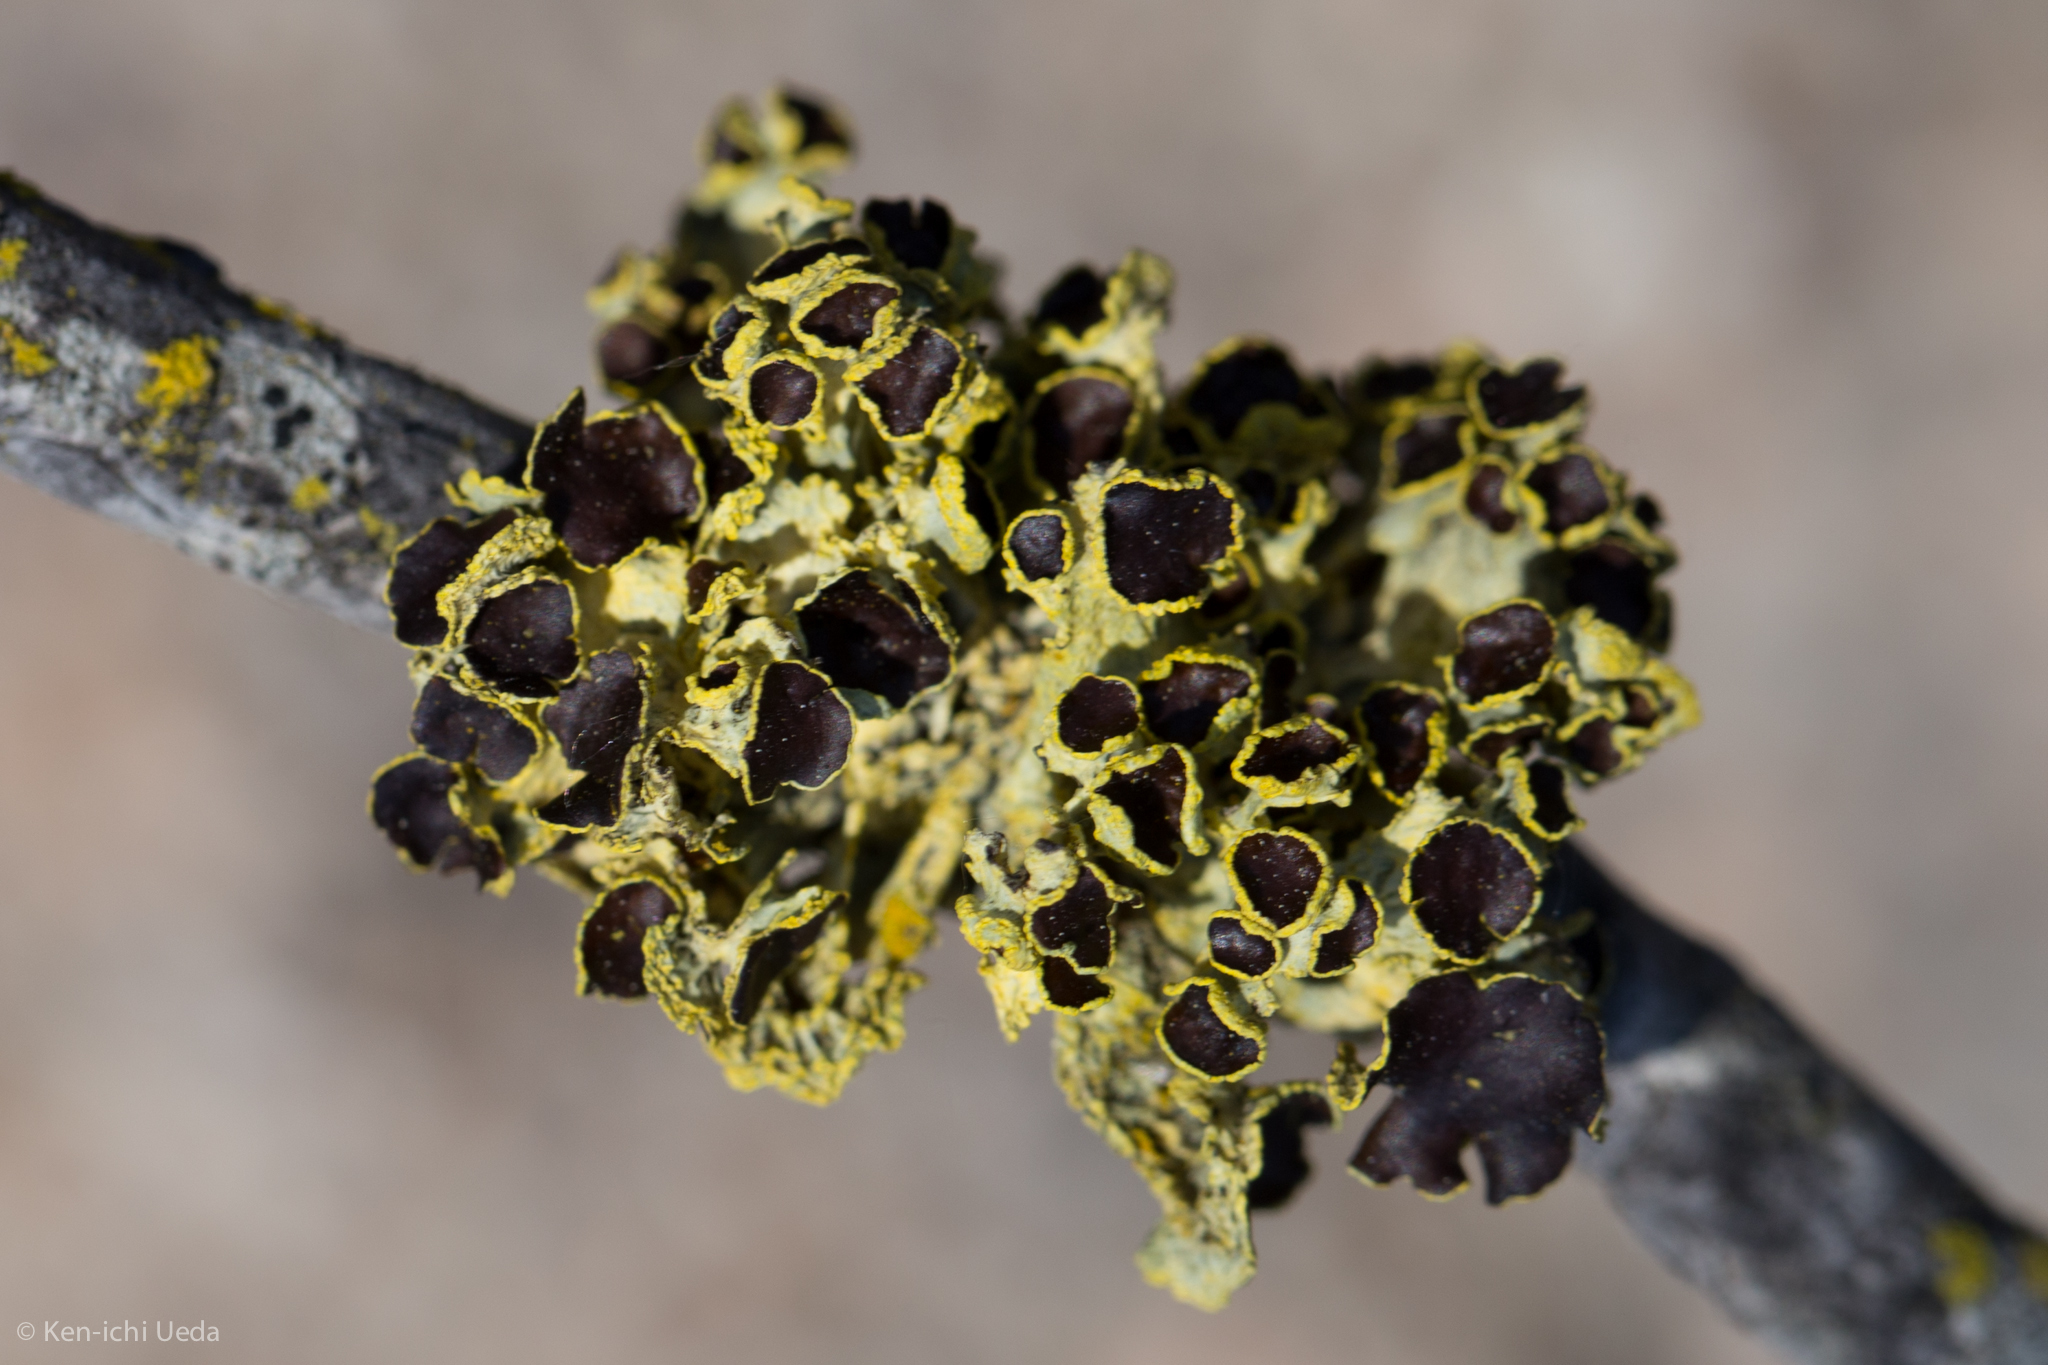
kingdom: Fungi
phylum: Ascomycota
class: Lecanoromycetes
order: Lecanorales
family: Parmeliaceae
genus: Vulpicida
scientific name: Vulpicida canadensis
